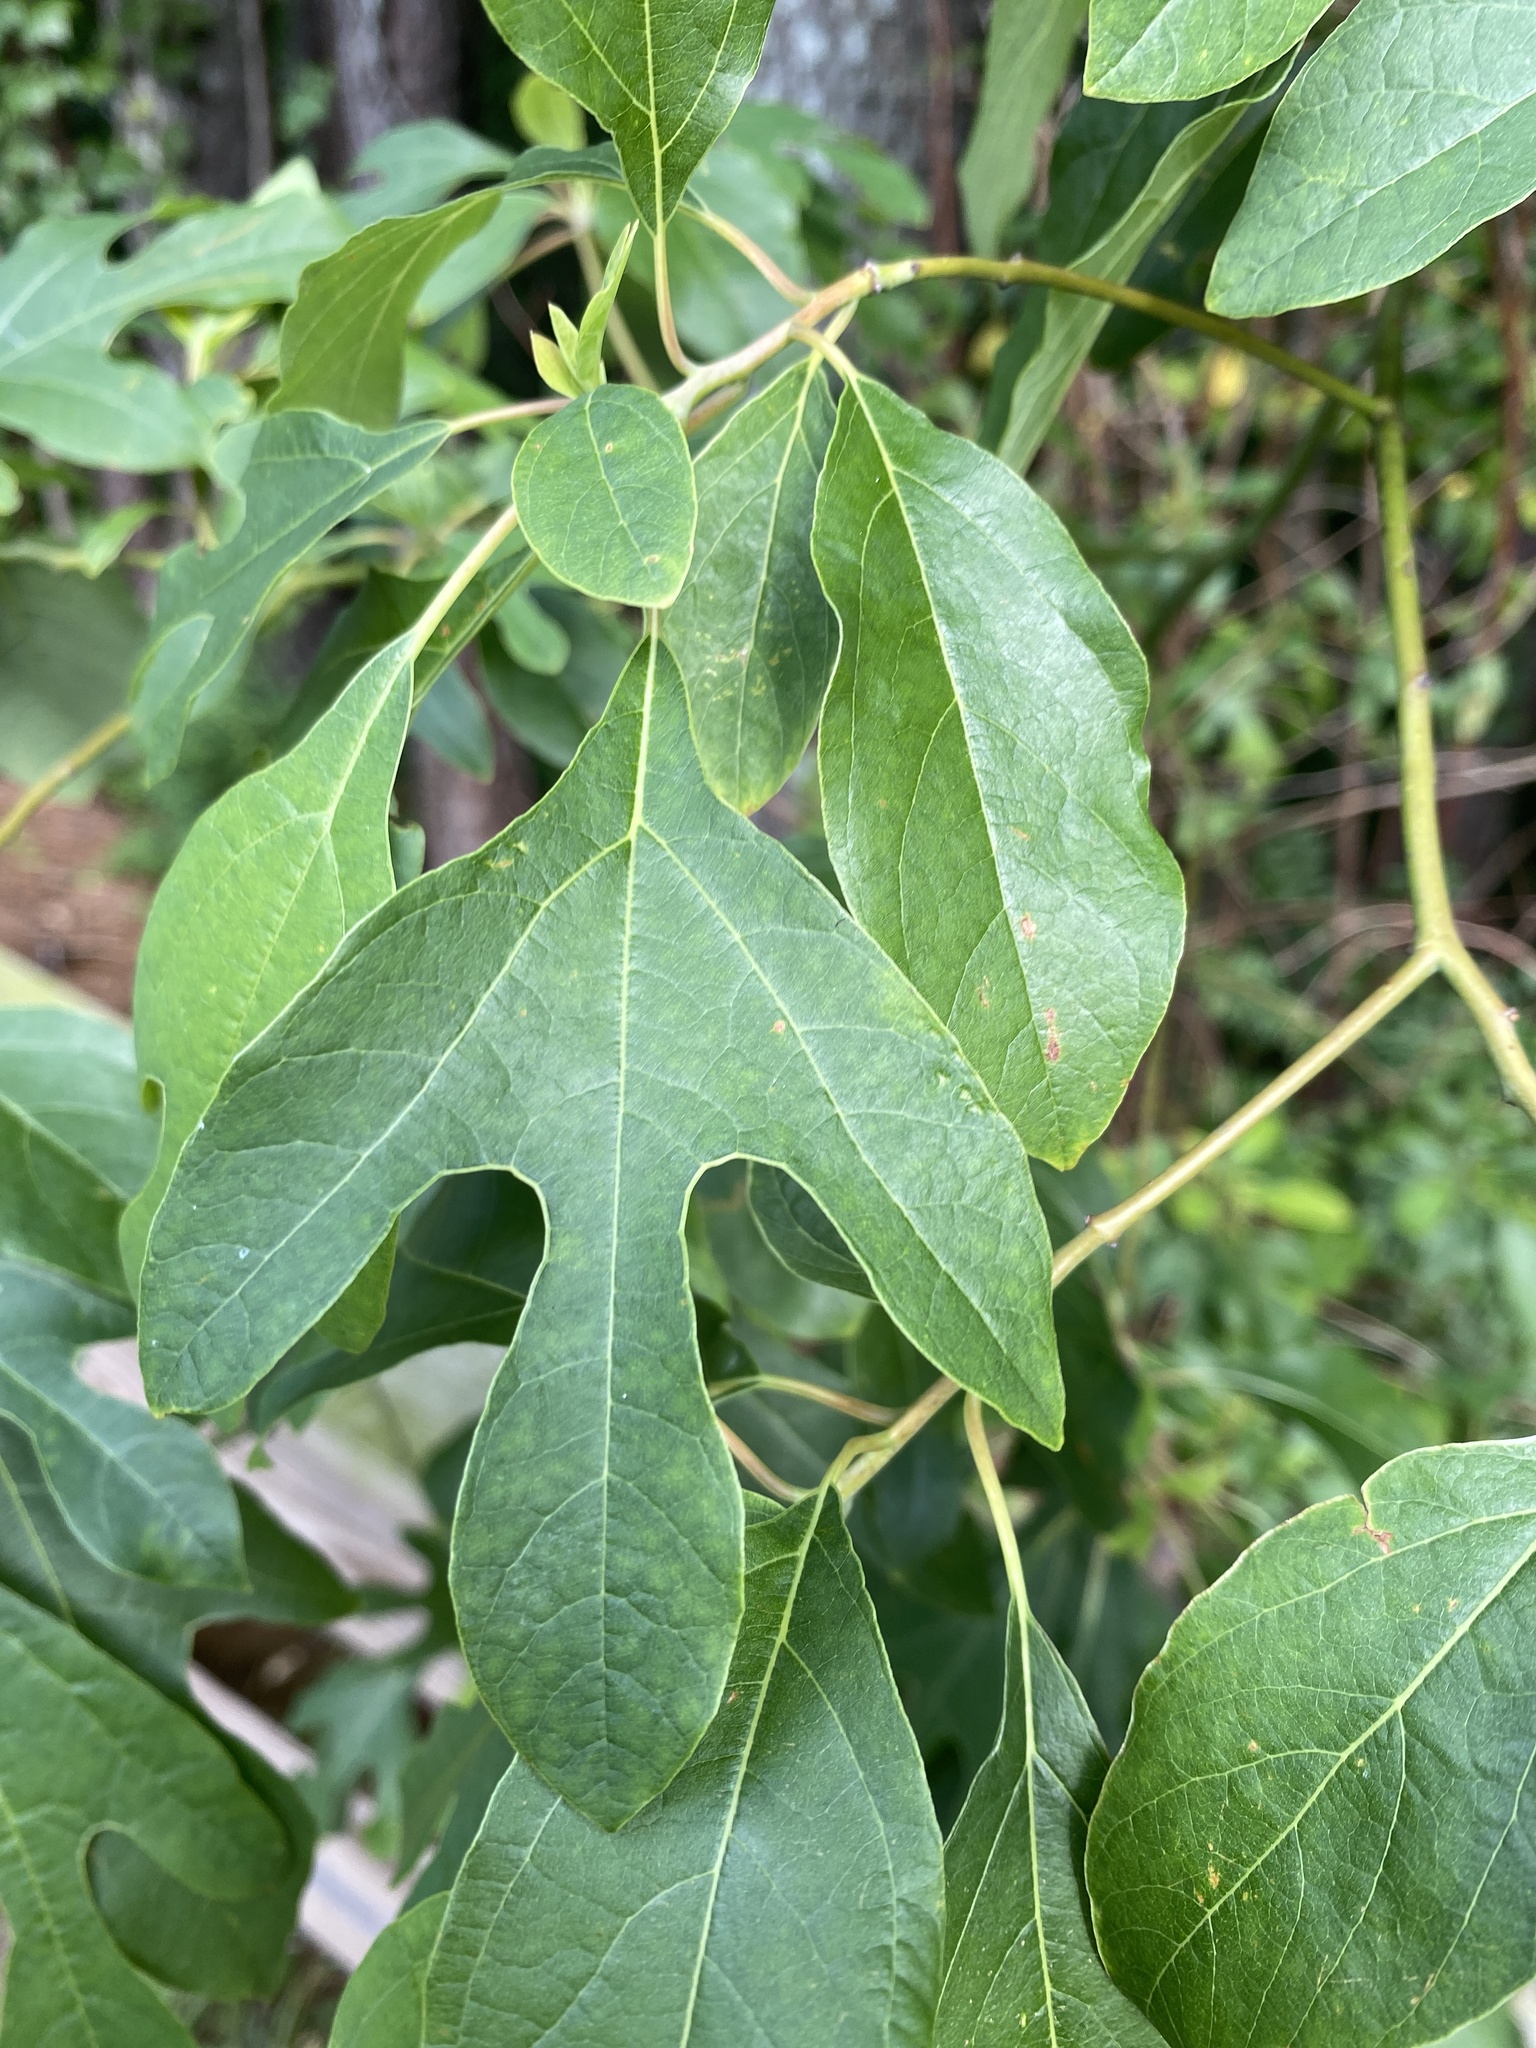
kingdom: Plantae
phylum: Tracheophyta
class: Magnoliopsida
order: Laurales
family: Lauraceae
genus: Sassafras
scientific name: Sassafras albidum
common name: Sassafras
